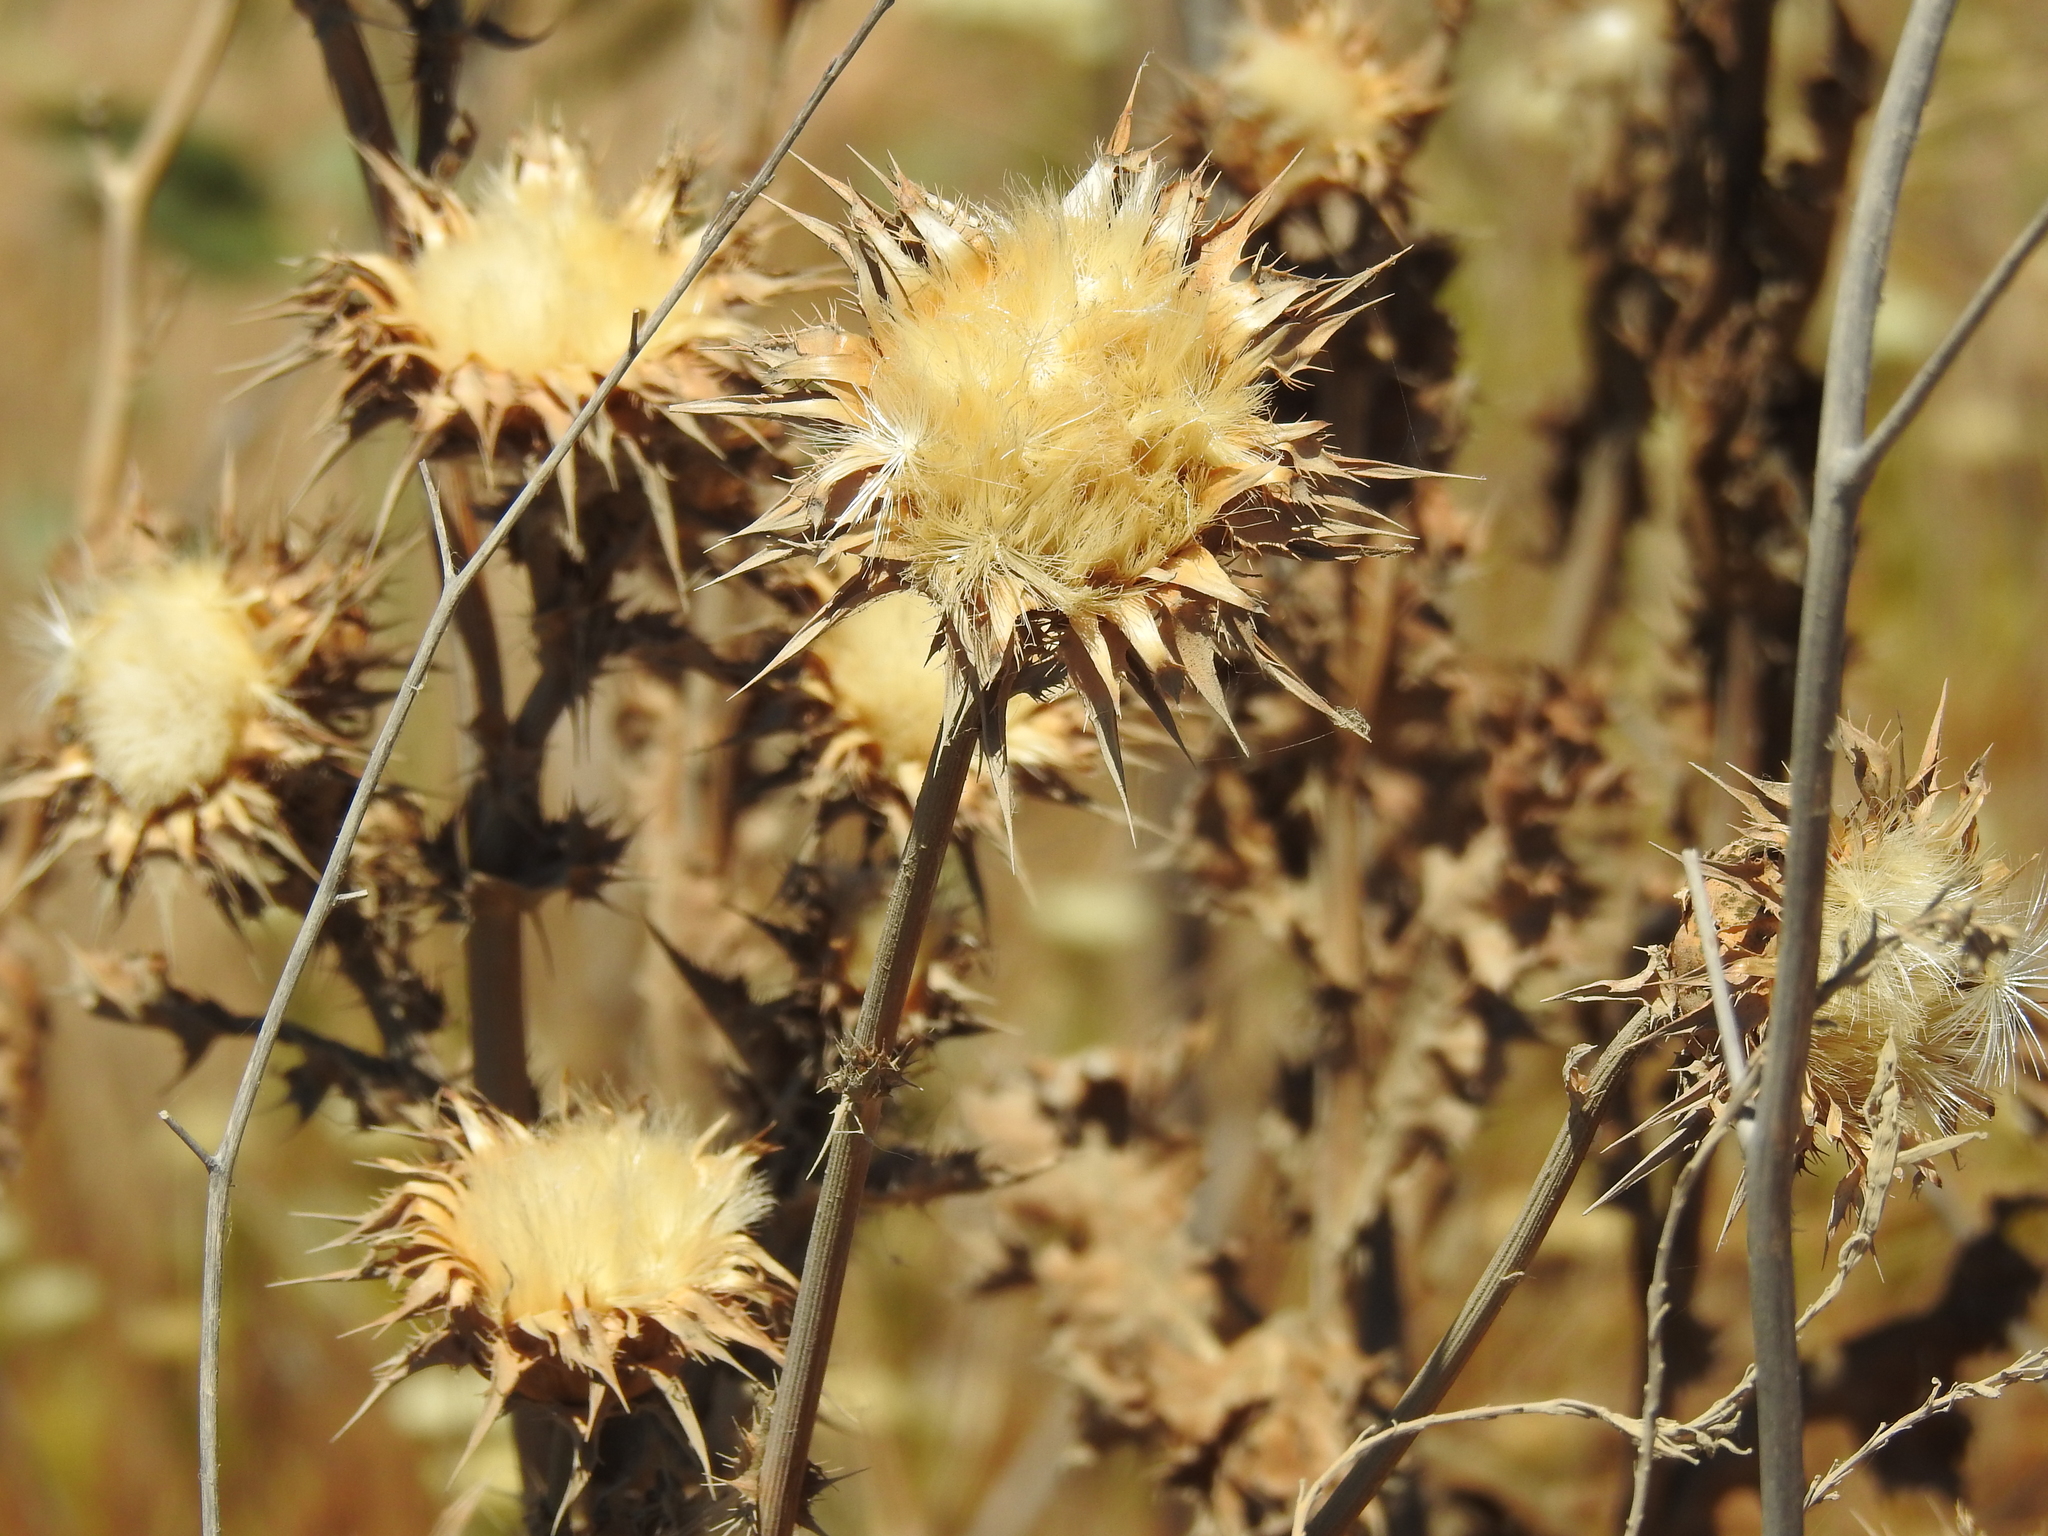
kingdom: Plantae
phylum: Tracheophyta
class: Magnoliopsida
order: Asterales
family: Asteraceae
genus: Silybum
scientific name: Silybum marianum
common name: Milk thistle
